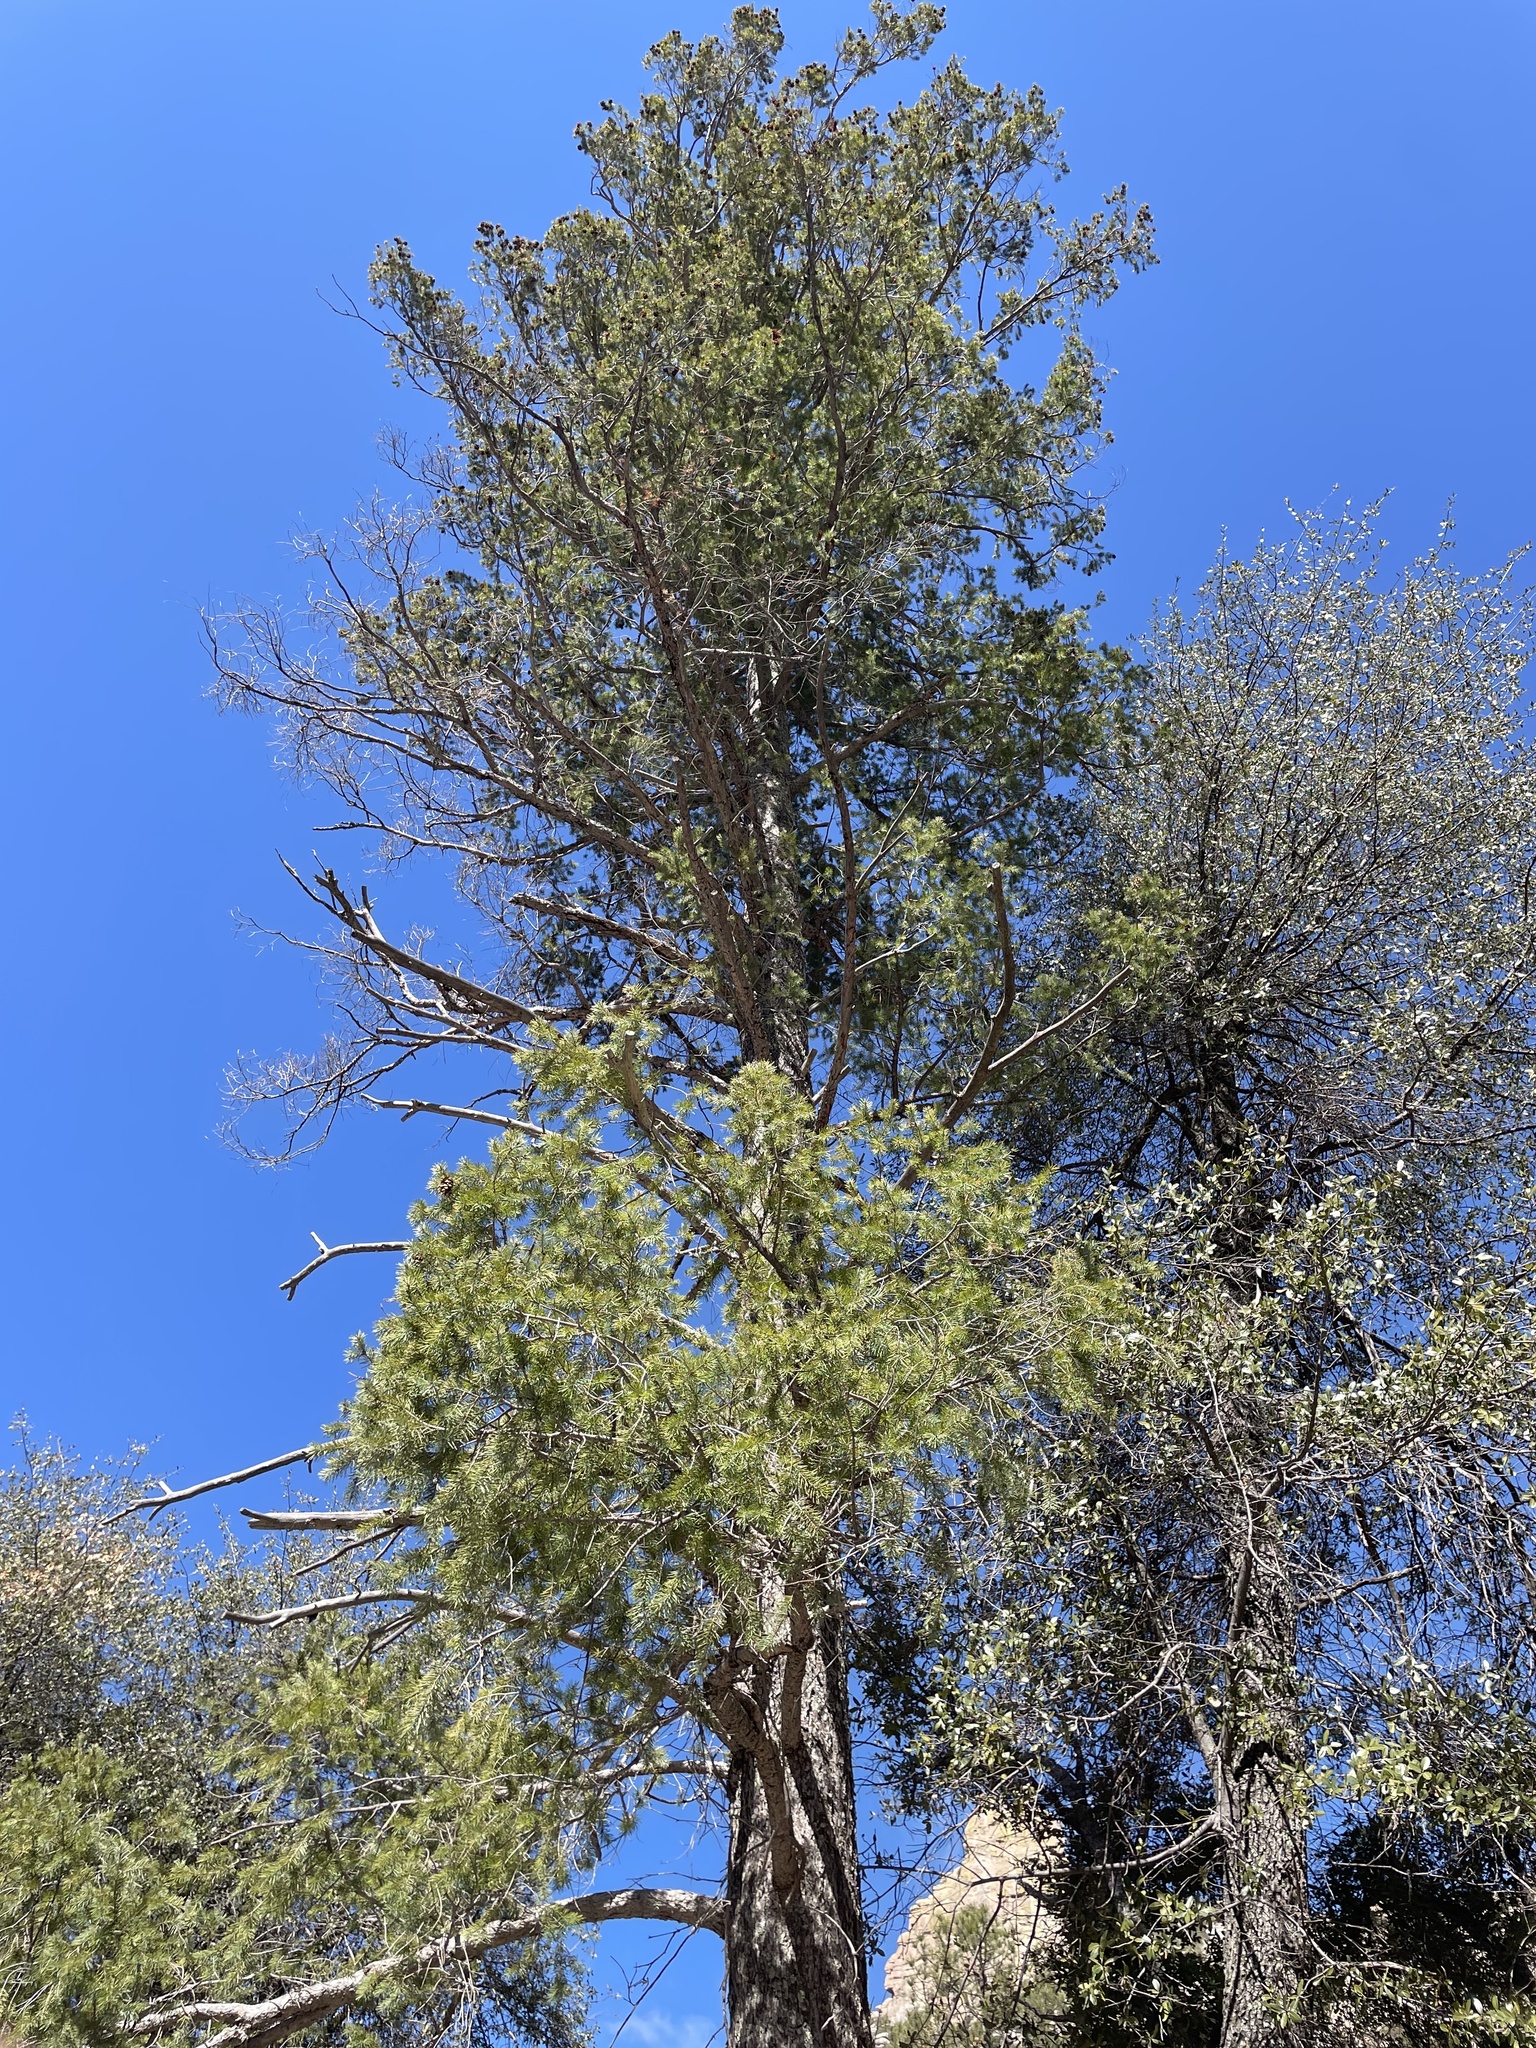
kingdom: Plantae
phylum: Tracheophyta
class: Pinopsida
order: Pinales
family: Pinaceae
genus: Pseudotsuga
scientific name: Pseudotsuga menziesii
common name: Douglas fir
